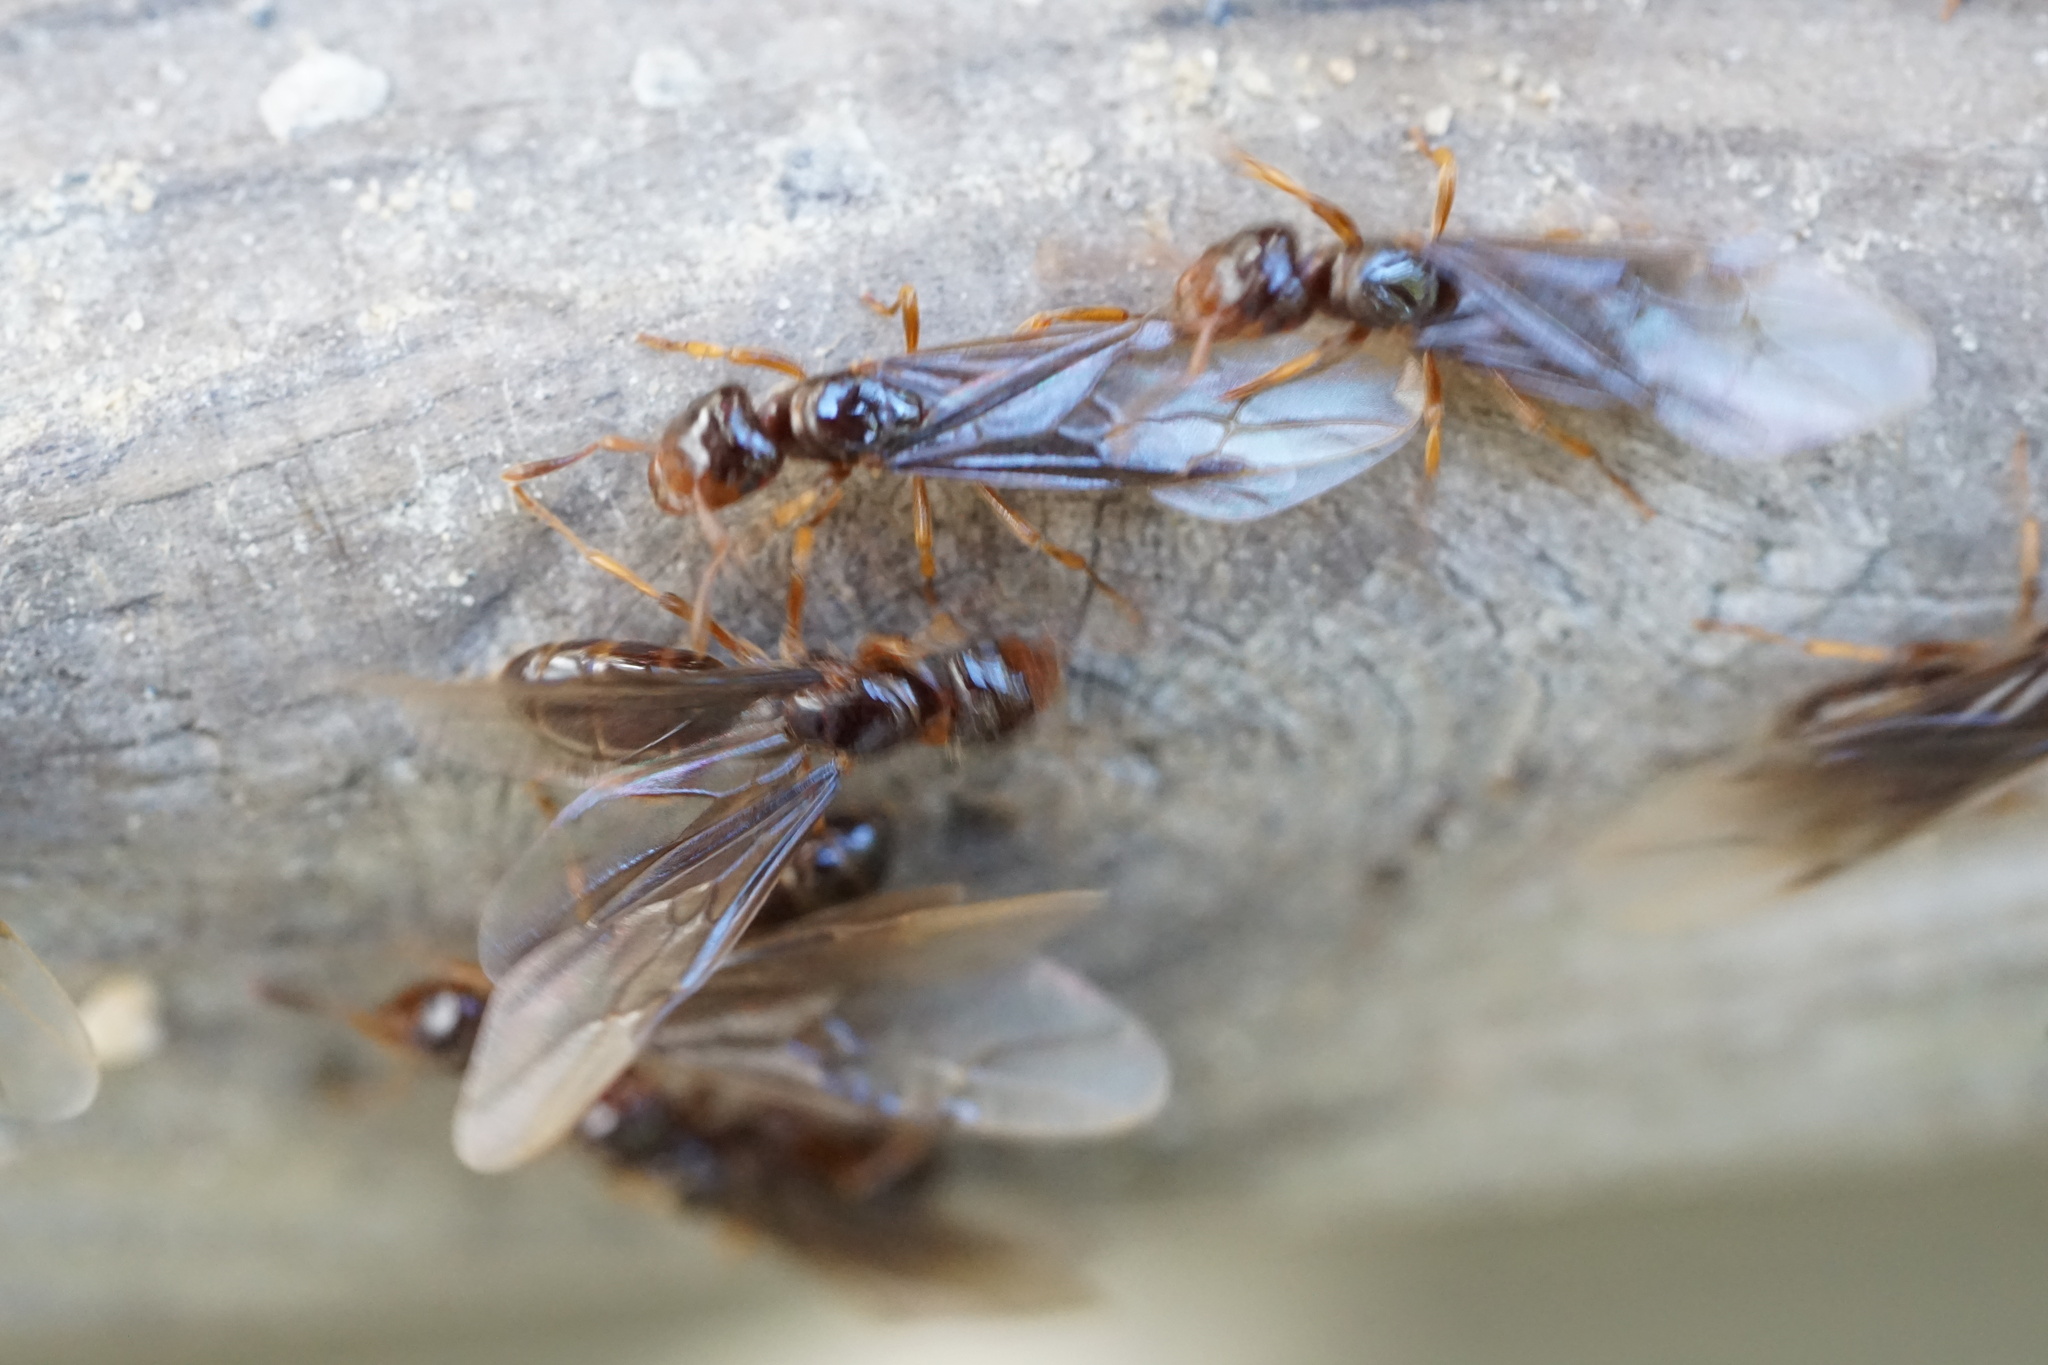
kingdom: Animalia
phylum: Arthropoda
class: Insecta
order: Hymenoptera
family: Formicidae
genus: Lasius
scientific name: Lasius claviger
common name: Common citronella ant
